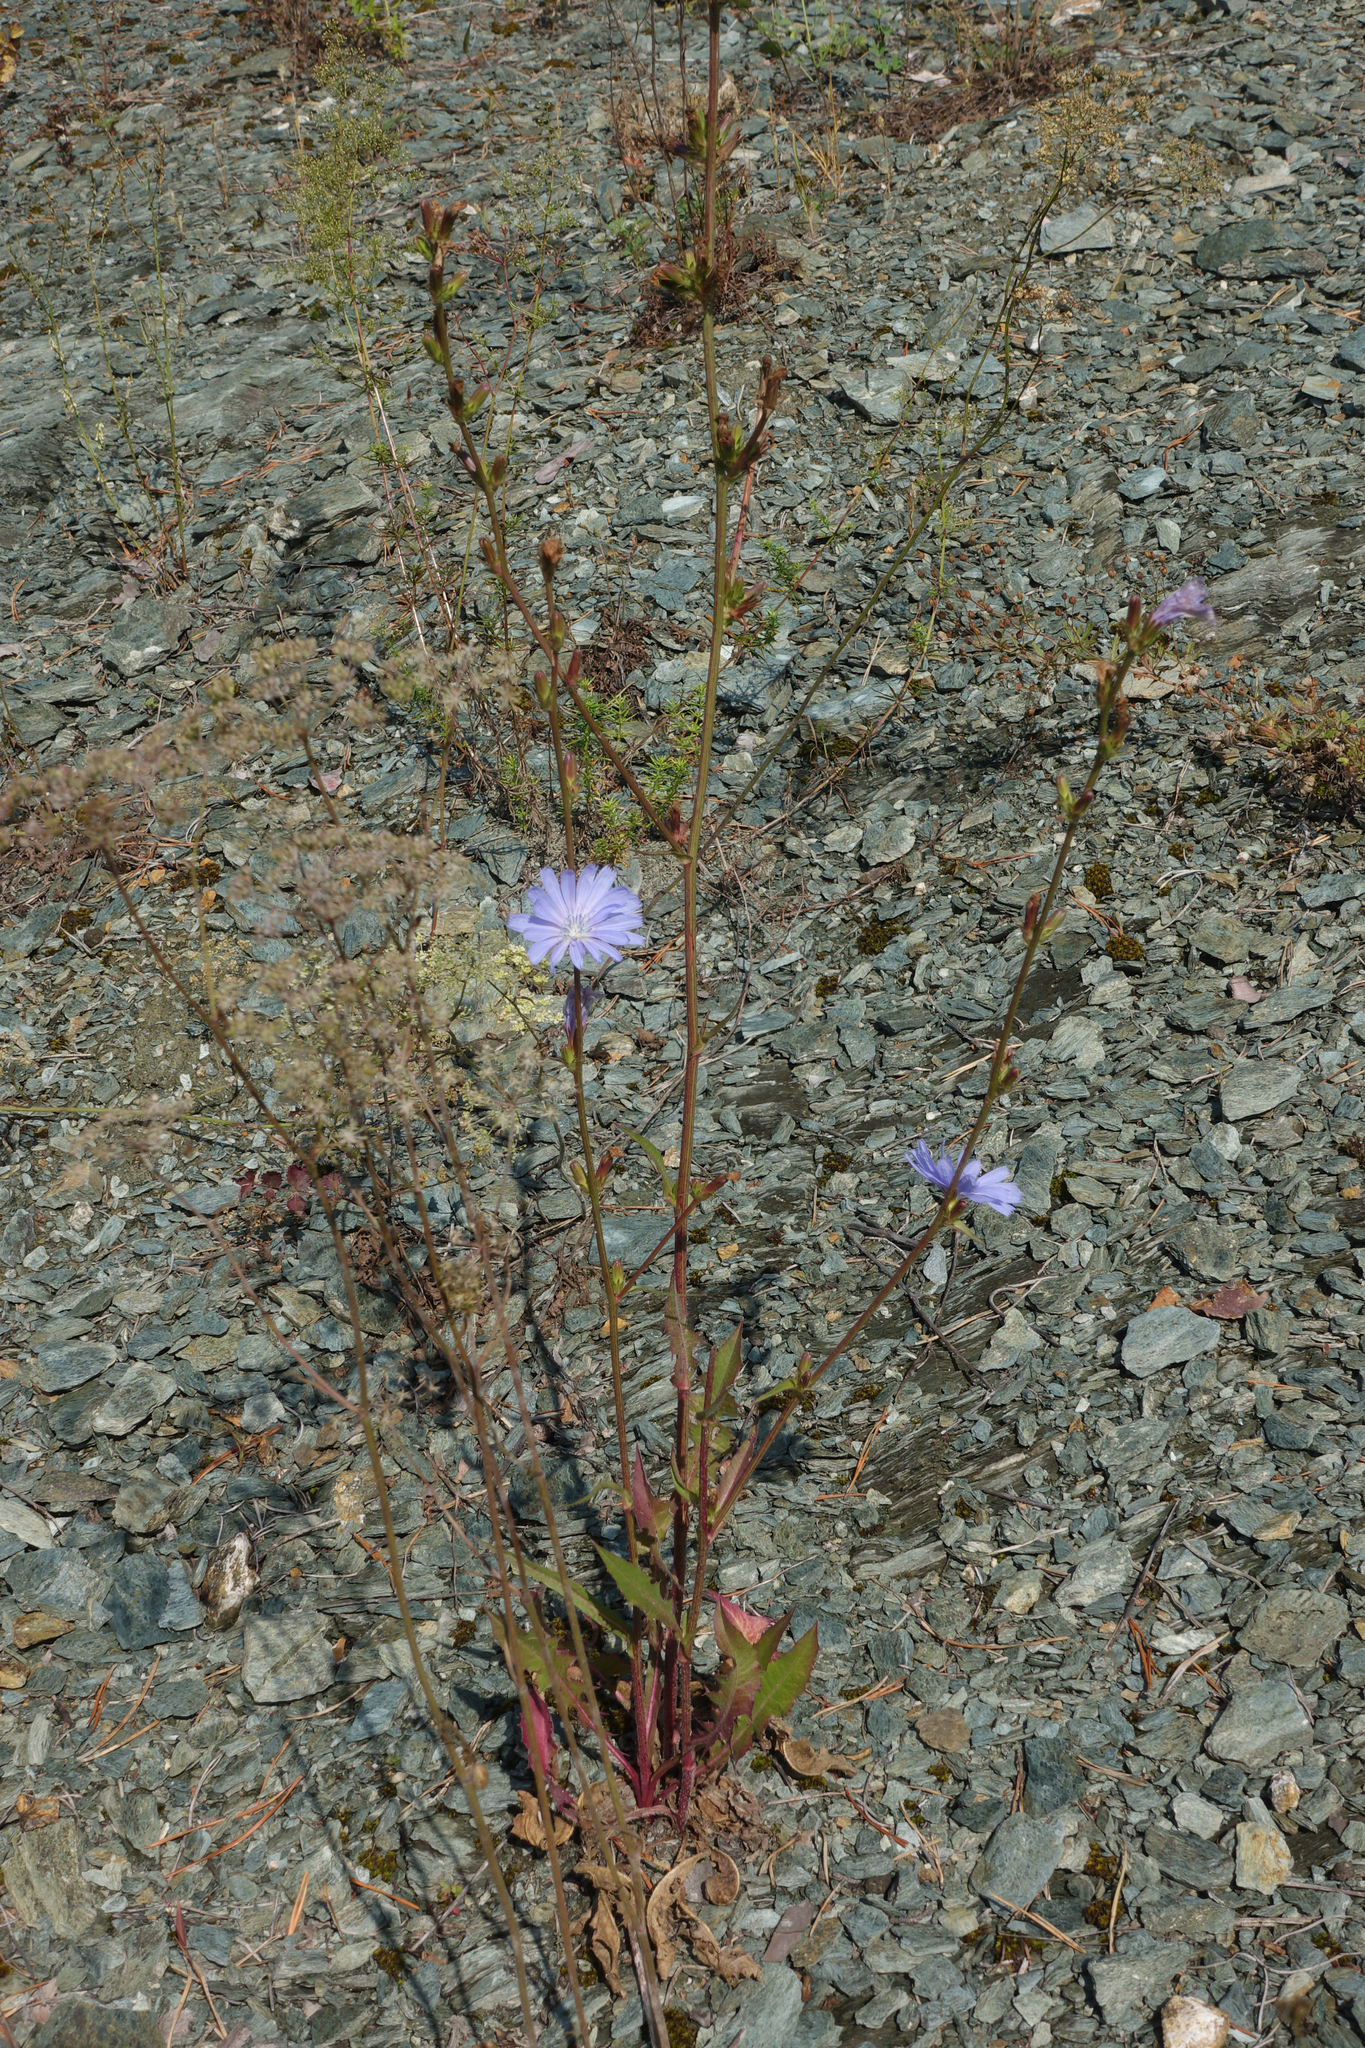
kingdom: Plantae
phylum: Tracheophyta
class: Magnoliopsida
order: Asterales
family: Asteraceae
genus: Cichorium
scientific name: Cichorium intybus
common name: Chicory
